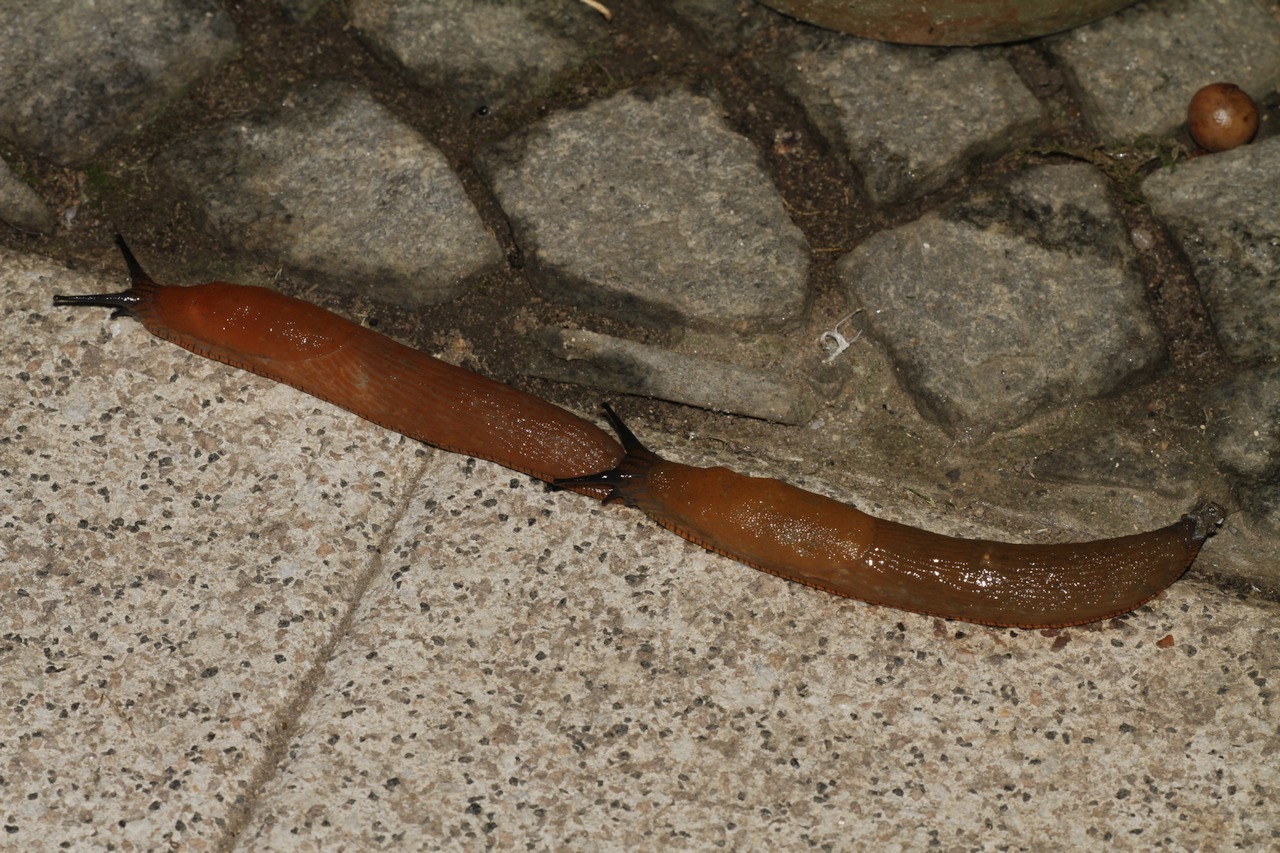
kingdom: Animalia
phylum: Mollusca
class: Gastropoda
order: Stylommatophora
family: Arionidae
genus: Arion
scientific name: Arion
